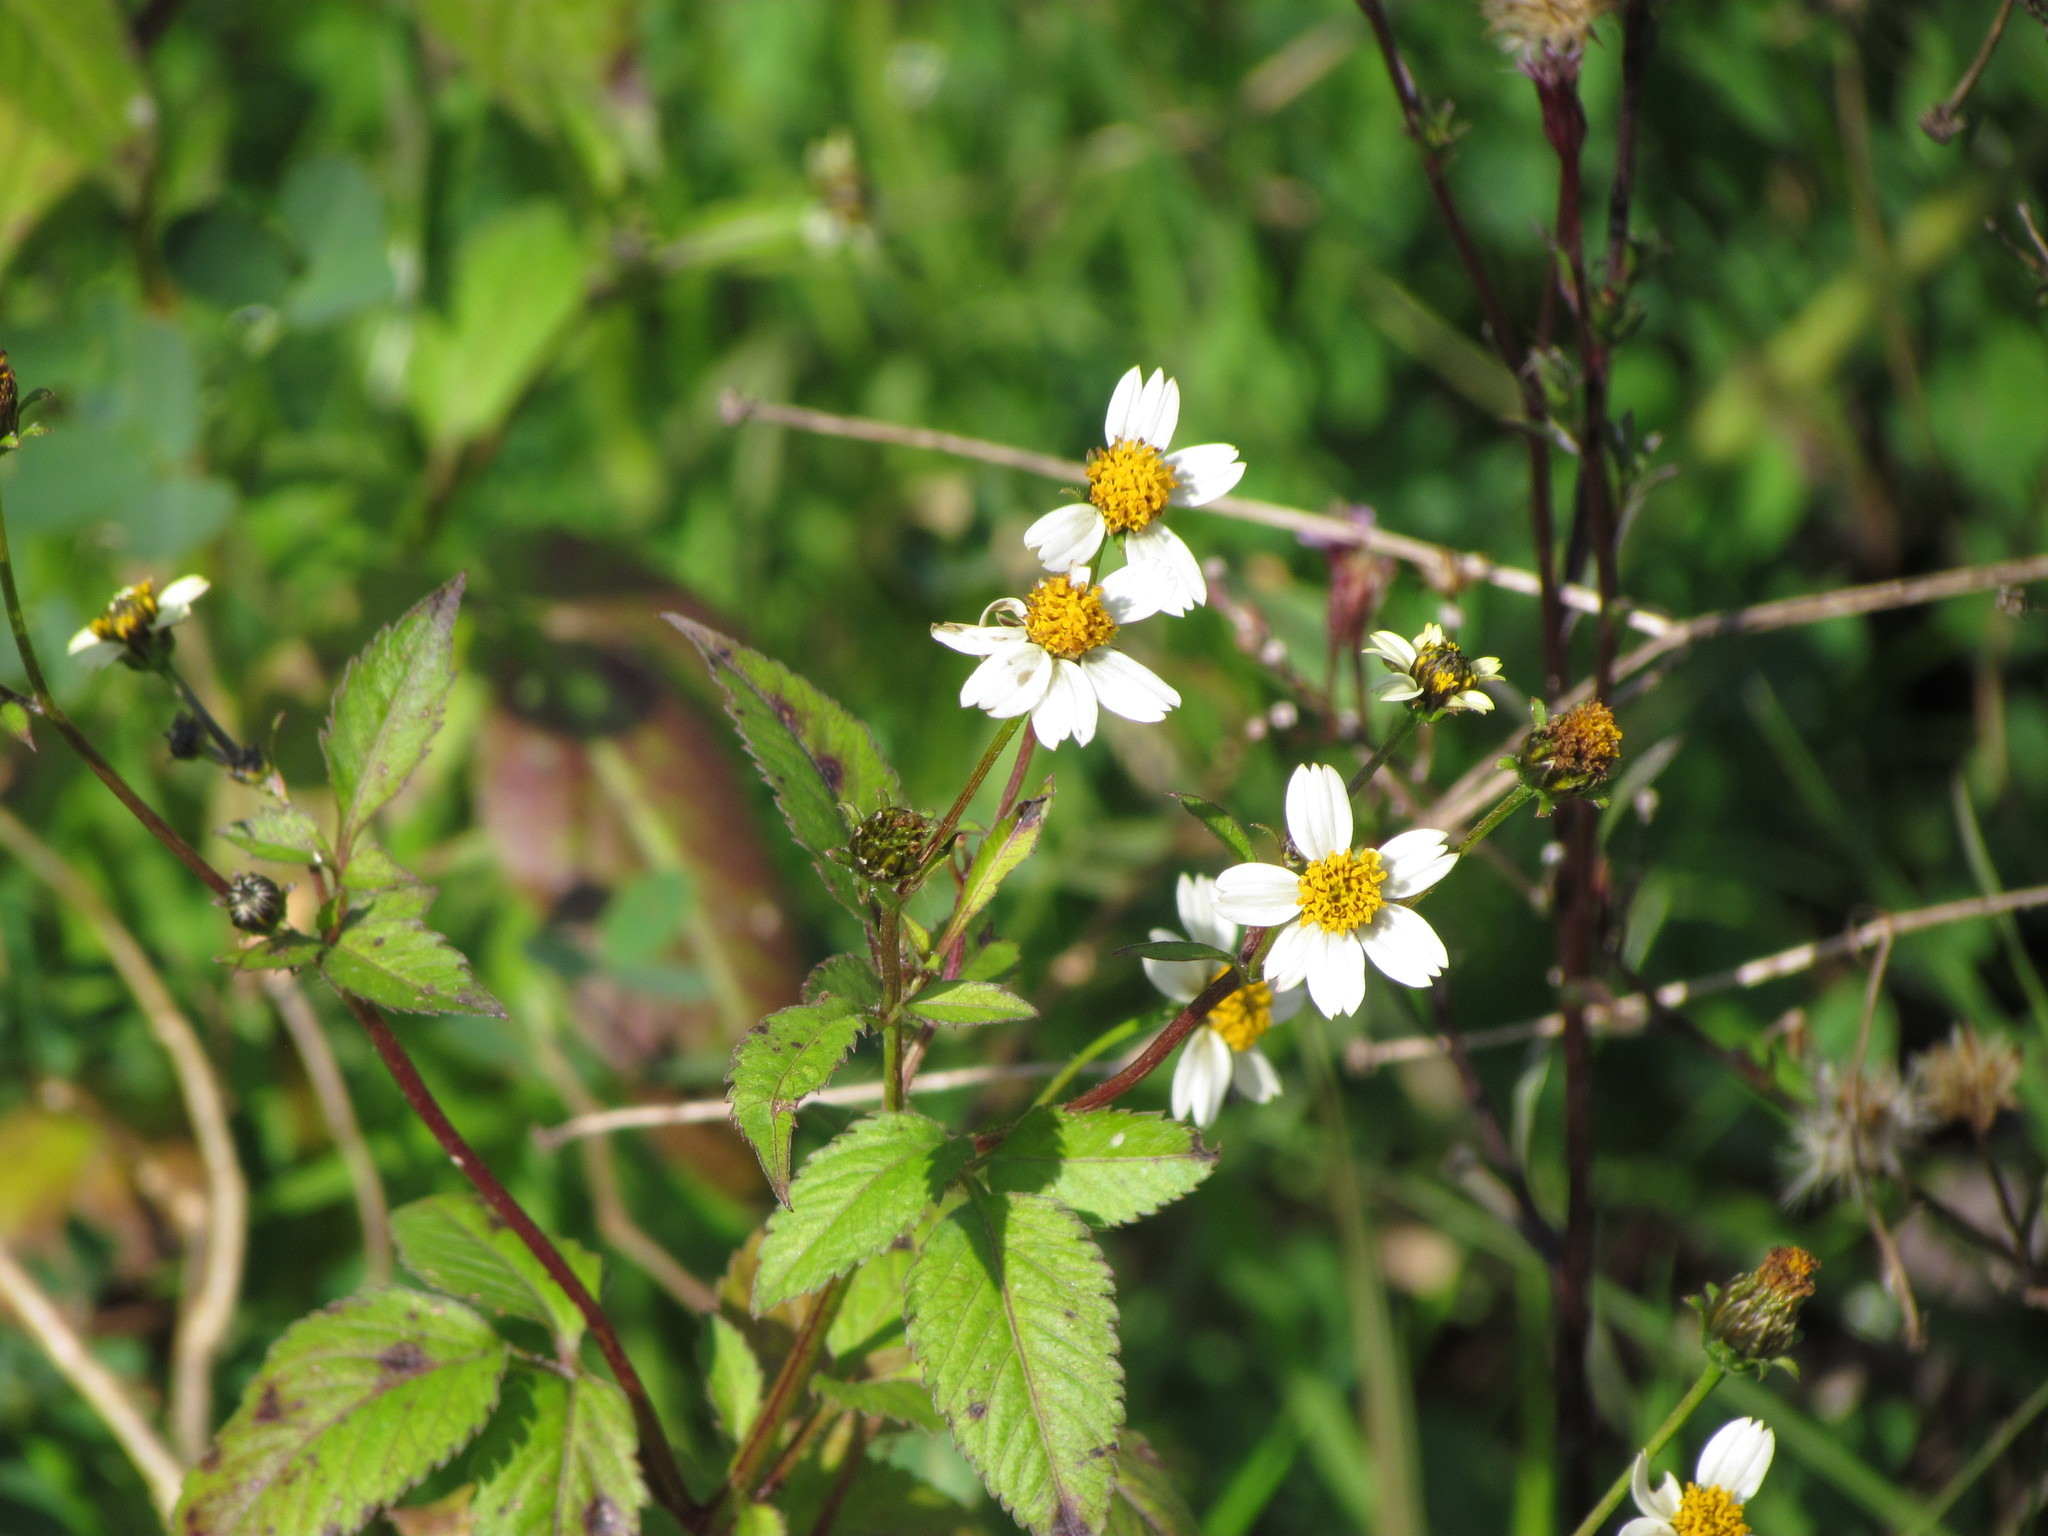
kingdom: Plantae
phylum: Tracheophyta
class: Magnoliopsida
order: Asterales
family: Asteraceae
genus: Bidens
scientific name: Bidens pilosa
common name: Black-jack
